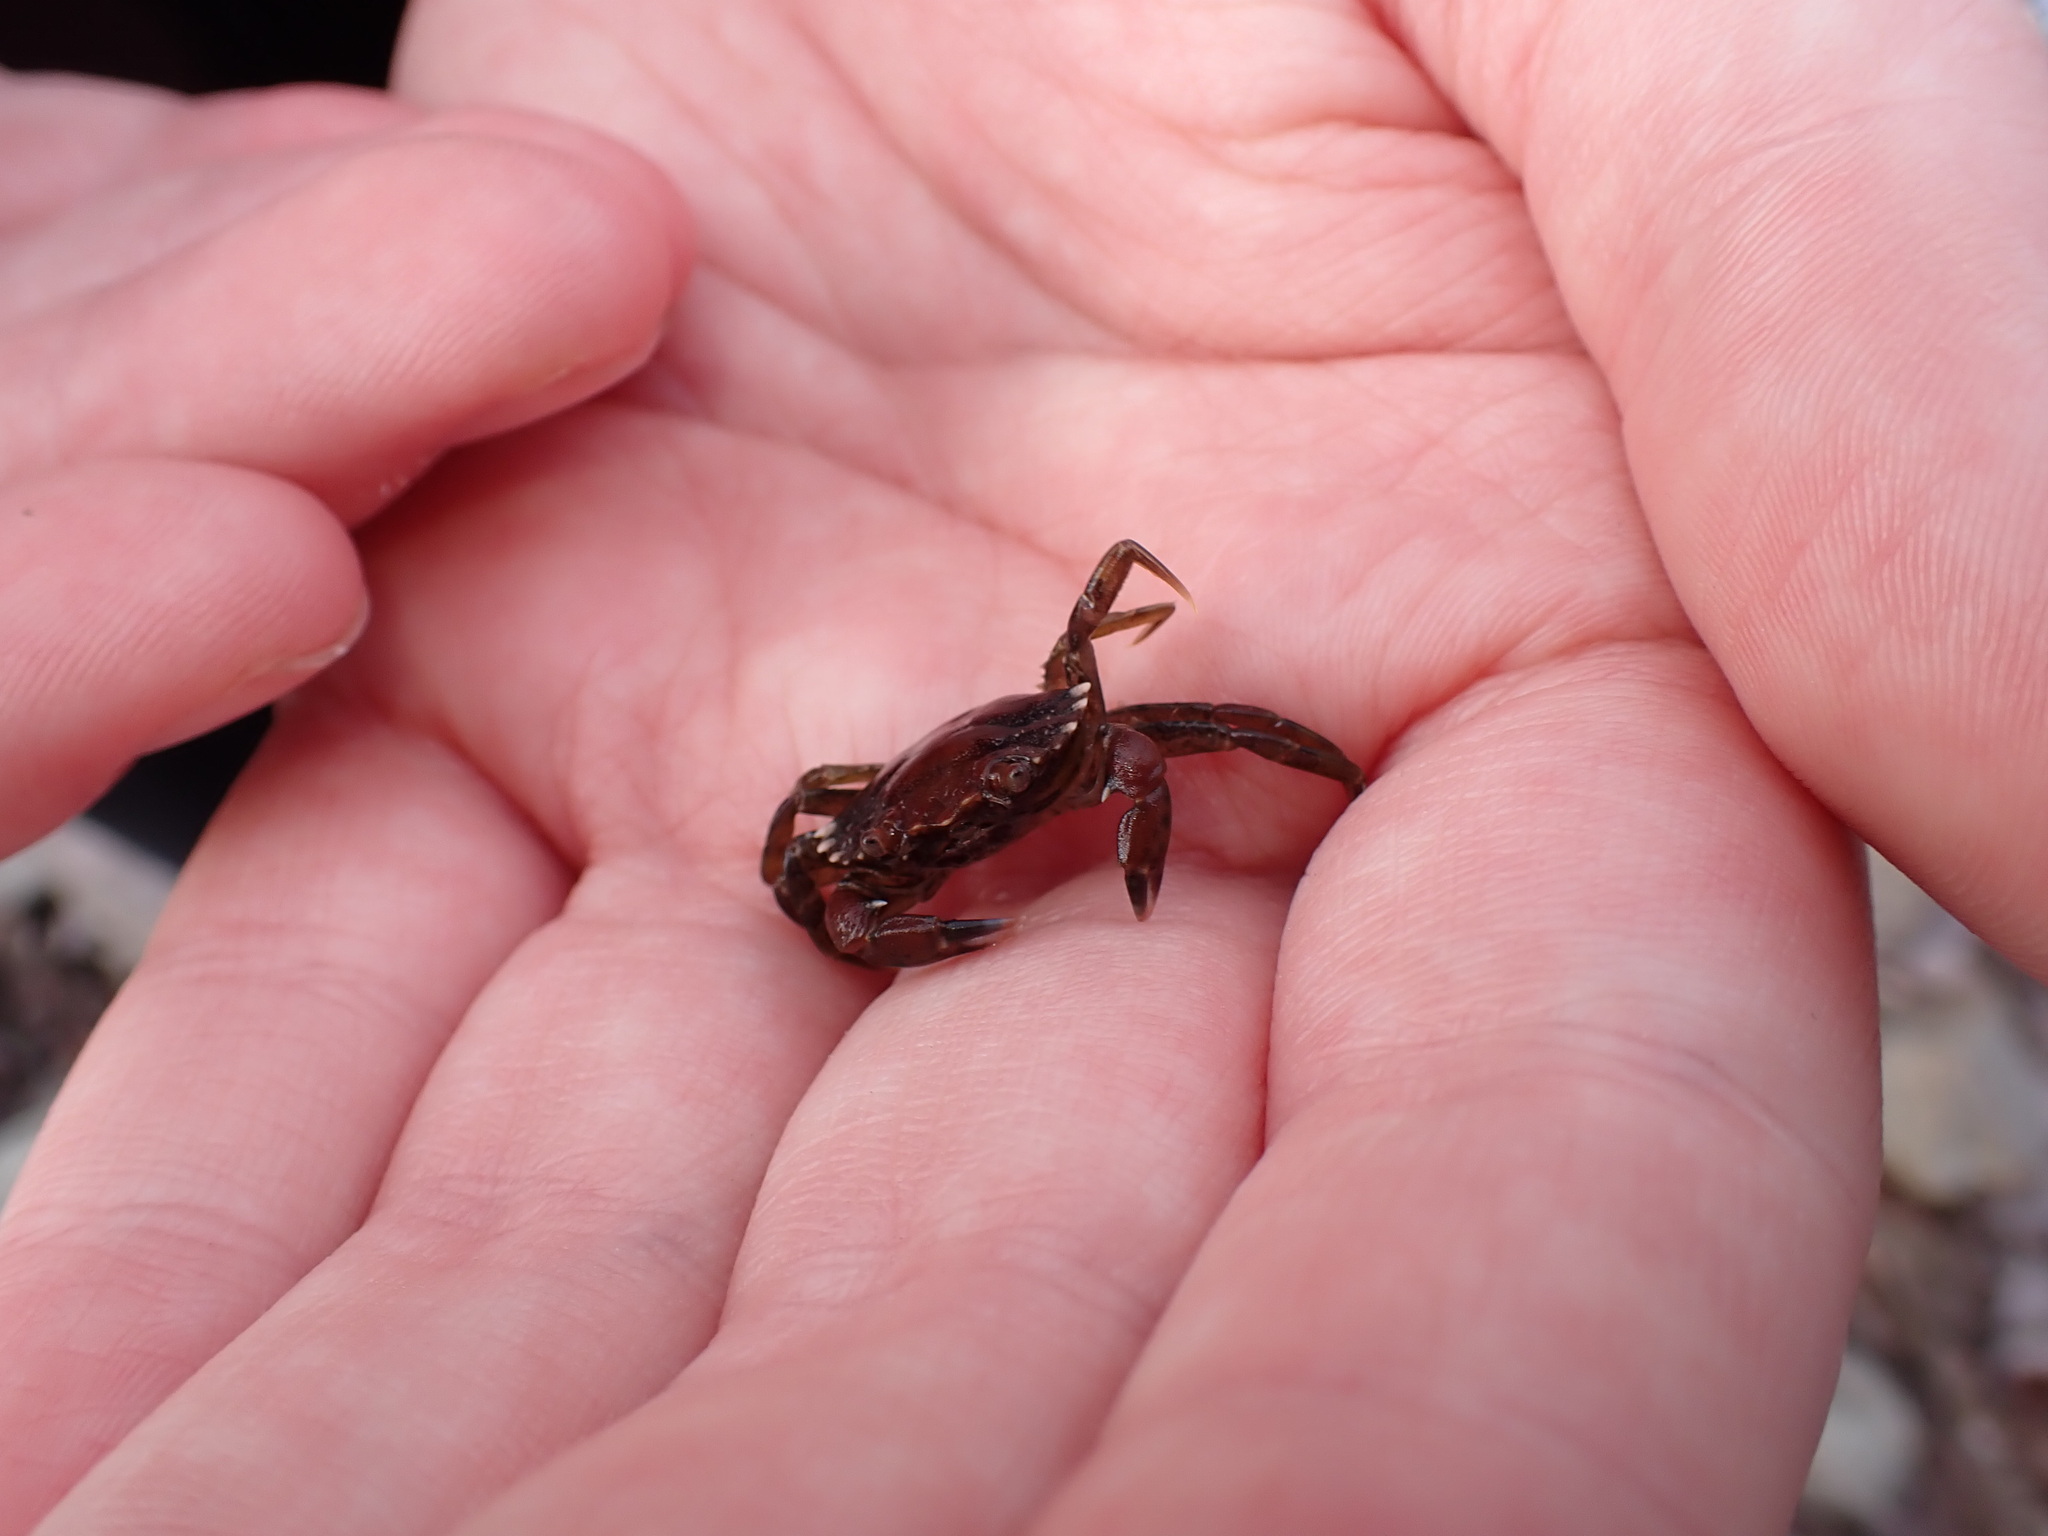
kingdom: Animalia
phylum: Arthropoda
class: Malacostraca
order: Decapoda
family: Carcinidae
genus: Carcinus
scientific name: Carcinus maenas
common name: European green crab
